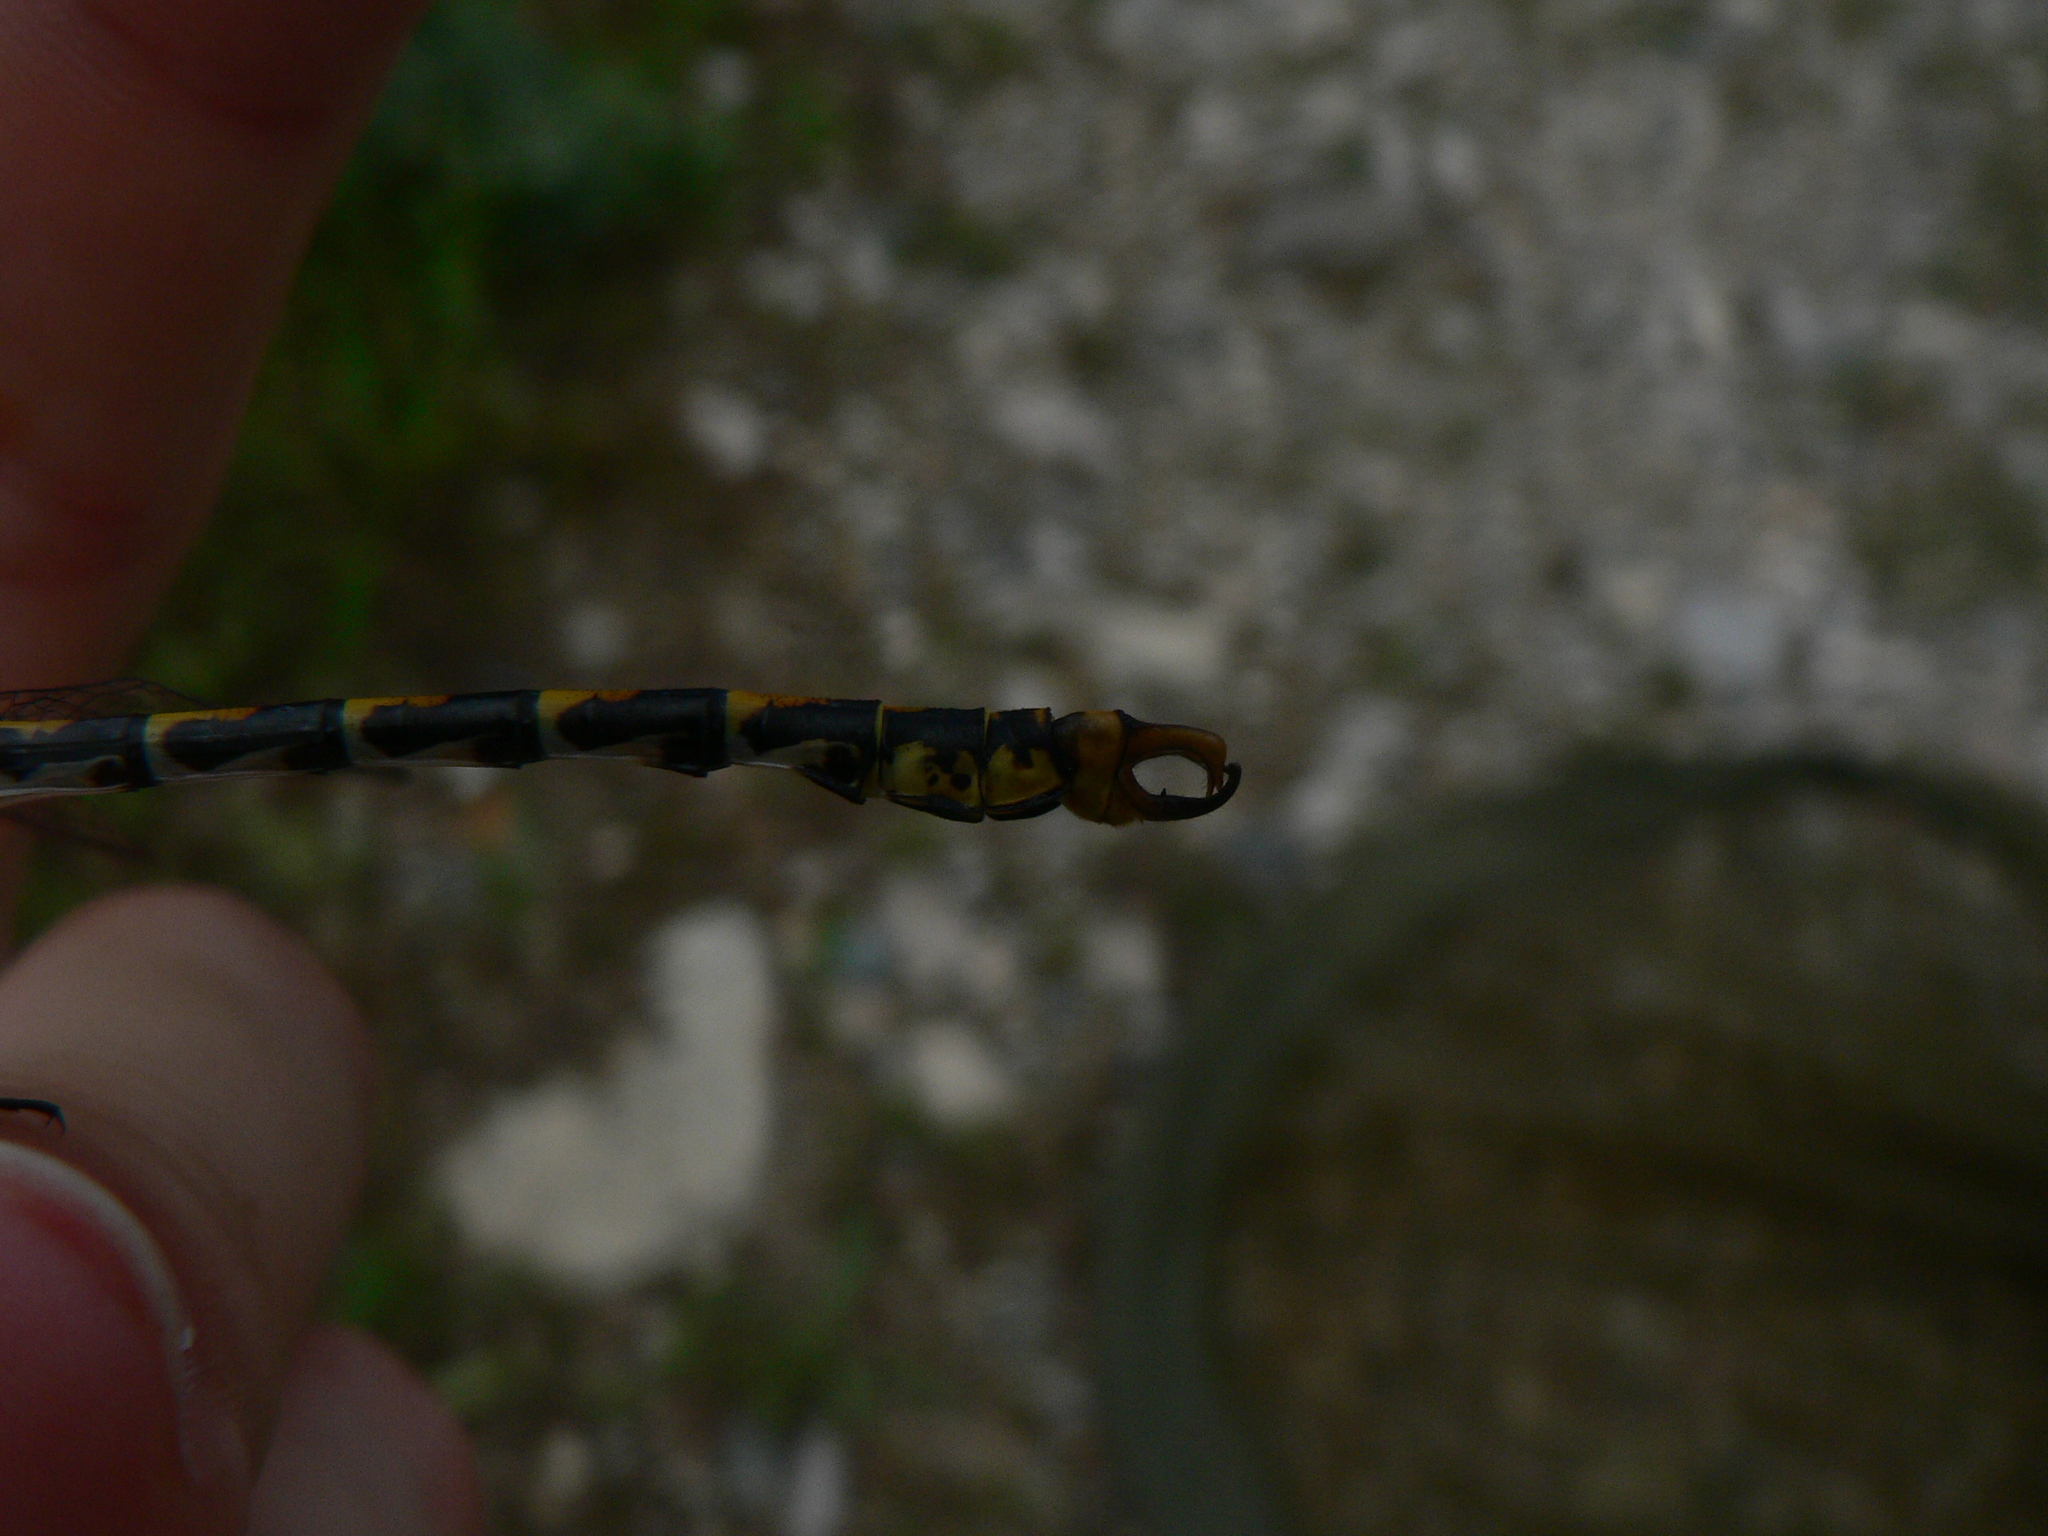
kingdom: Animalia
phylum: Arthropoda
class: Insecta
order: Odonata
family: Gomphidae
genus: Onychogomphus
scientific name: Onychogomphus forcipatus
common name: Small pincertail
